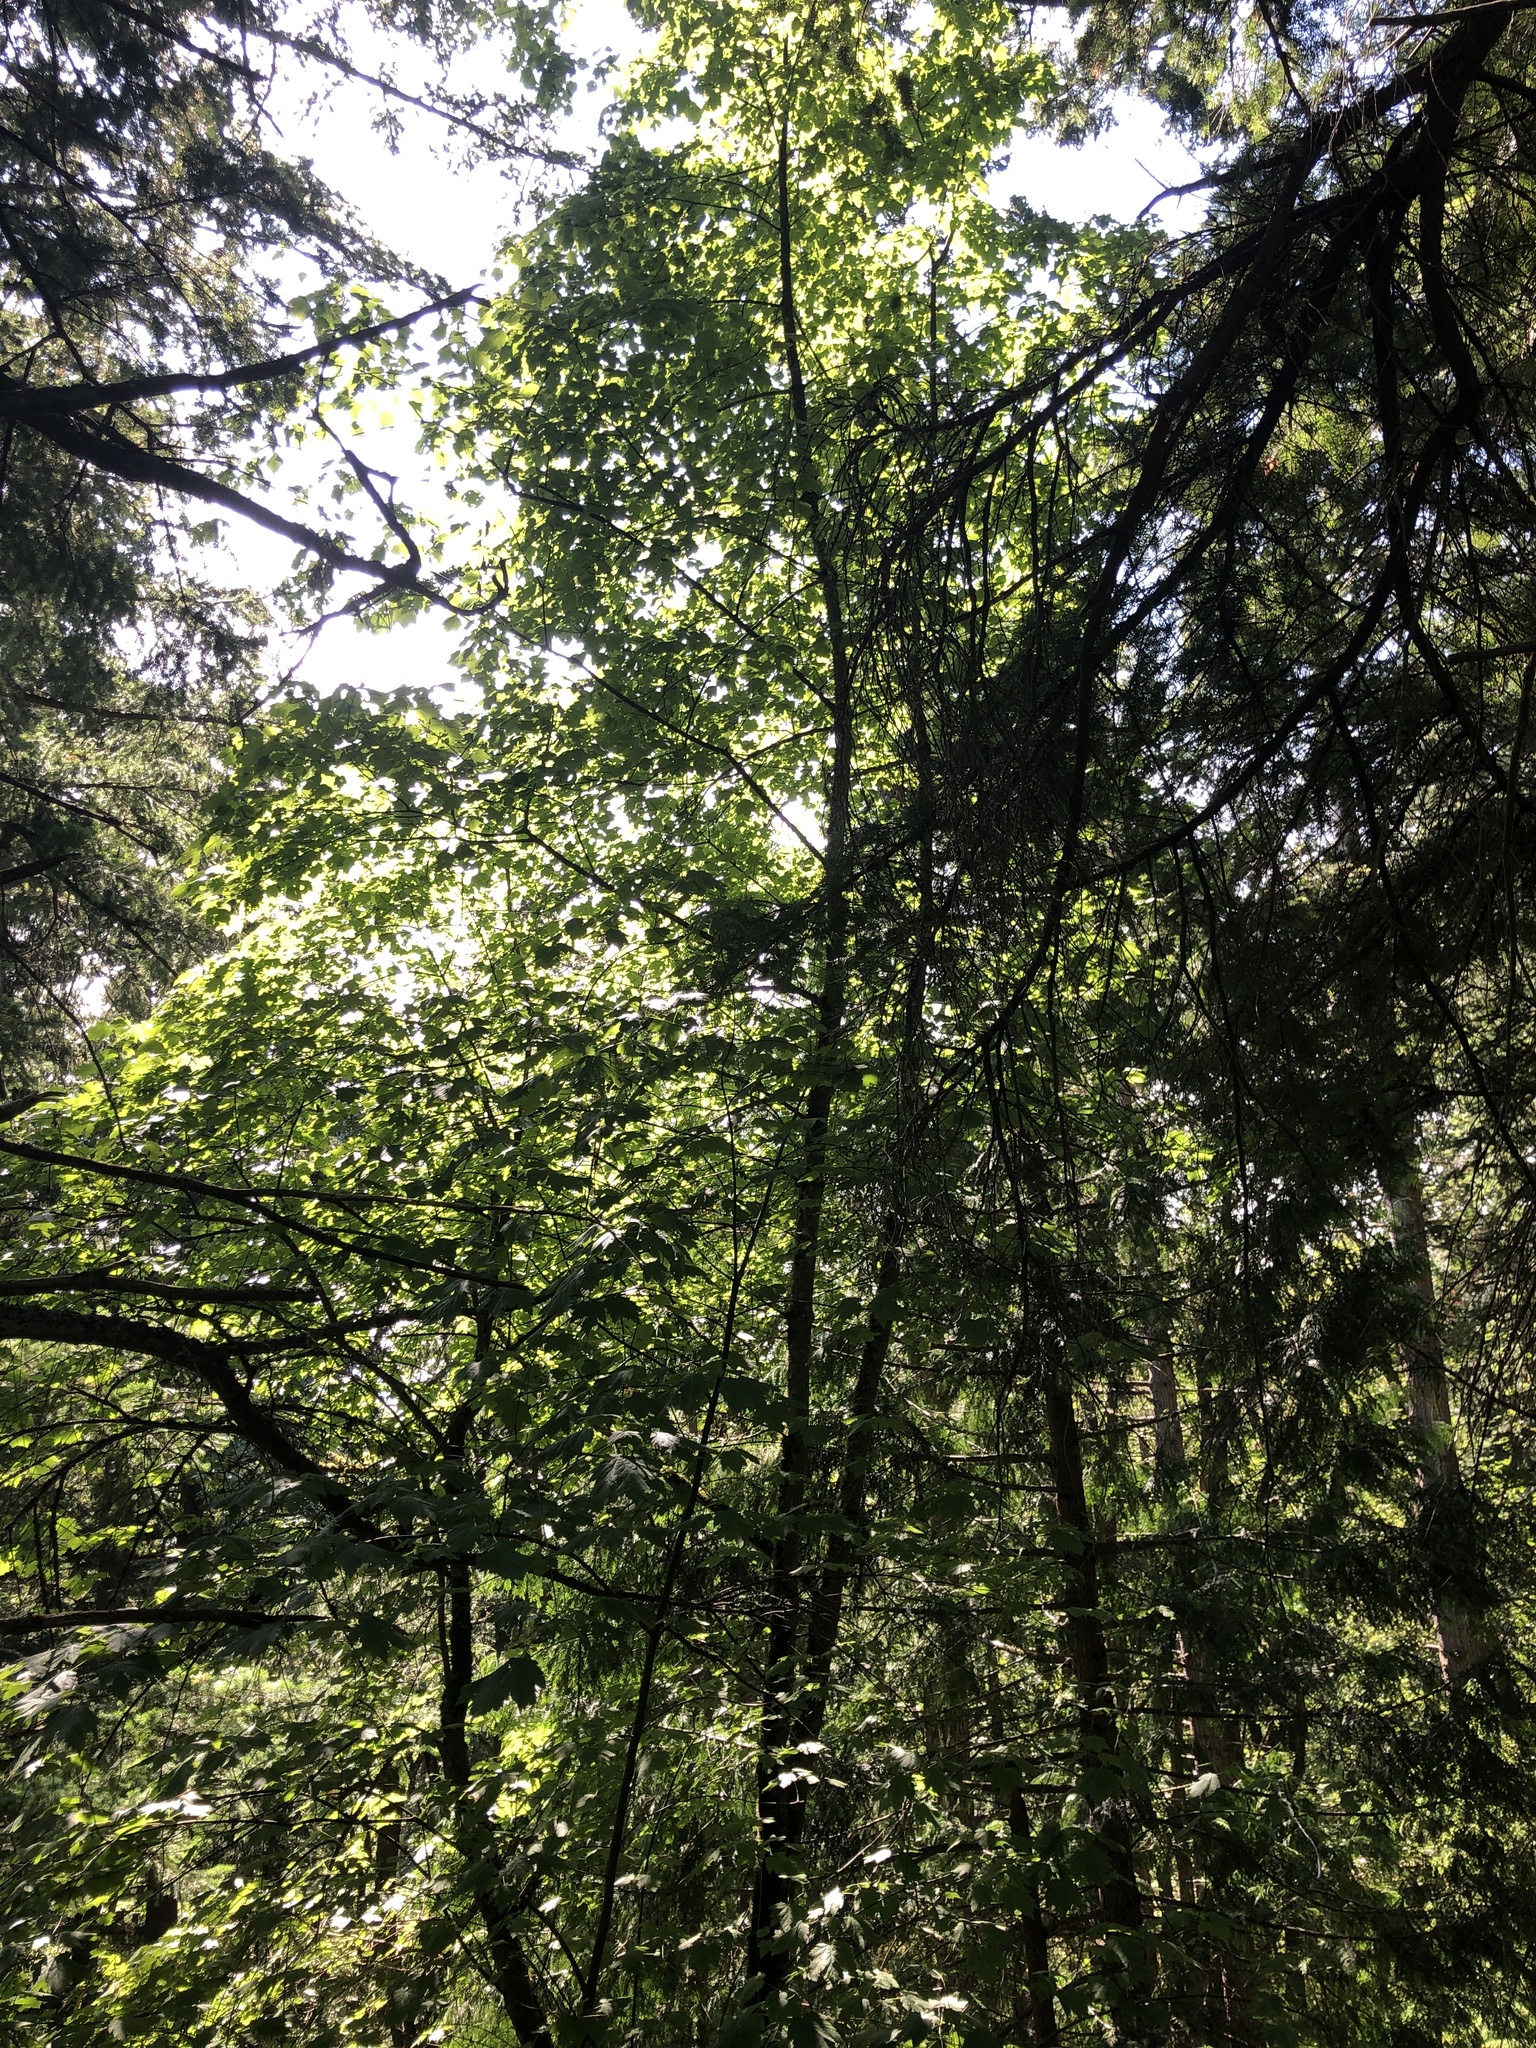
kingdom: Plantae
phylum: Tracheophyta
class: Magnoliopsida
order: Sapindales
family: Sapindaceae
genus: Acer
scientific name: Acer glabrum
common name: Rocky mountain maple
